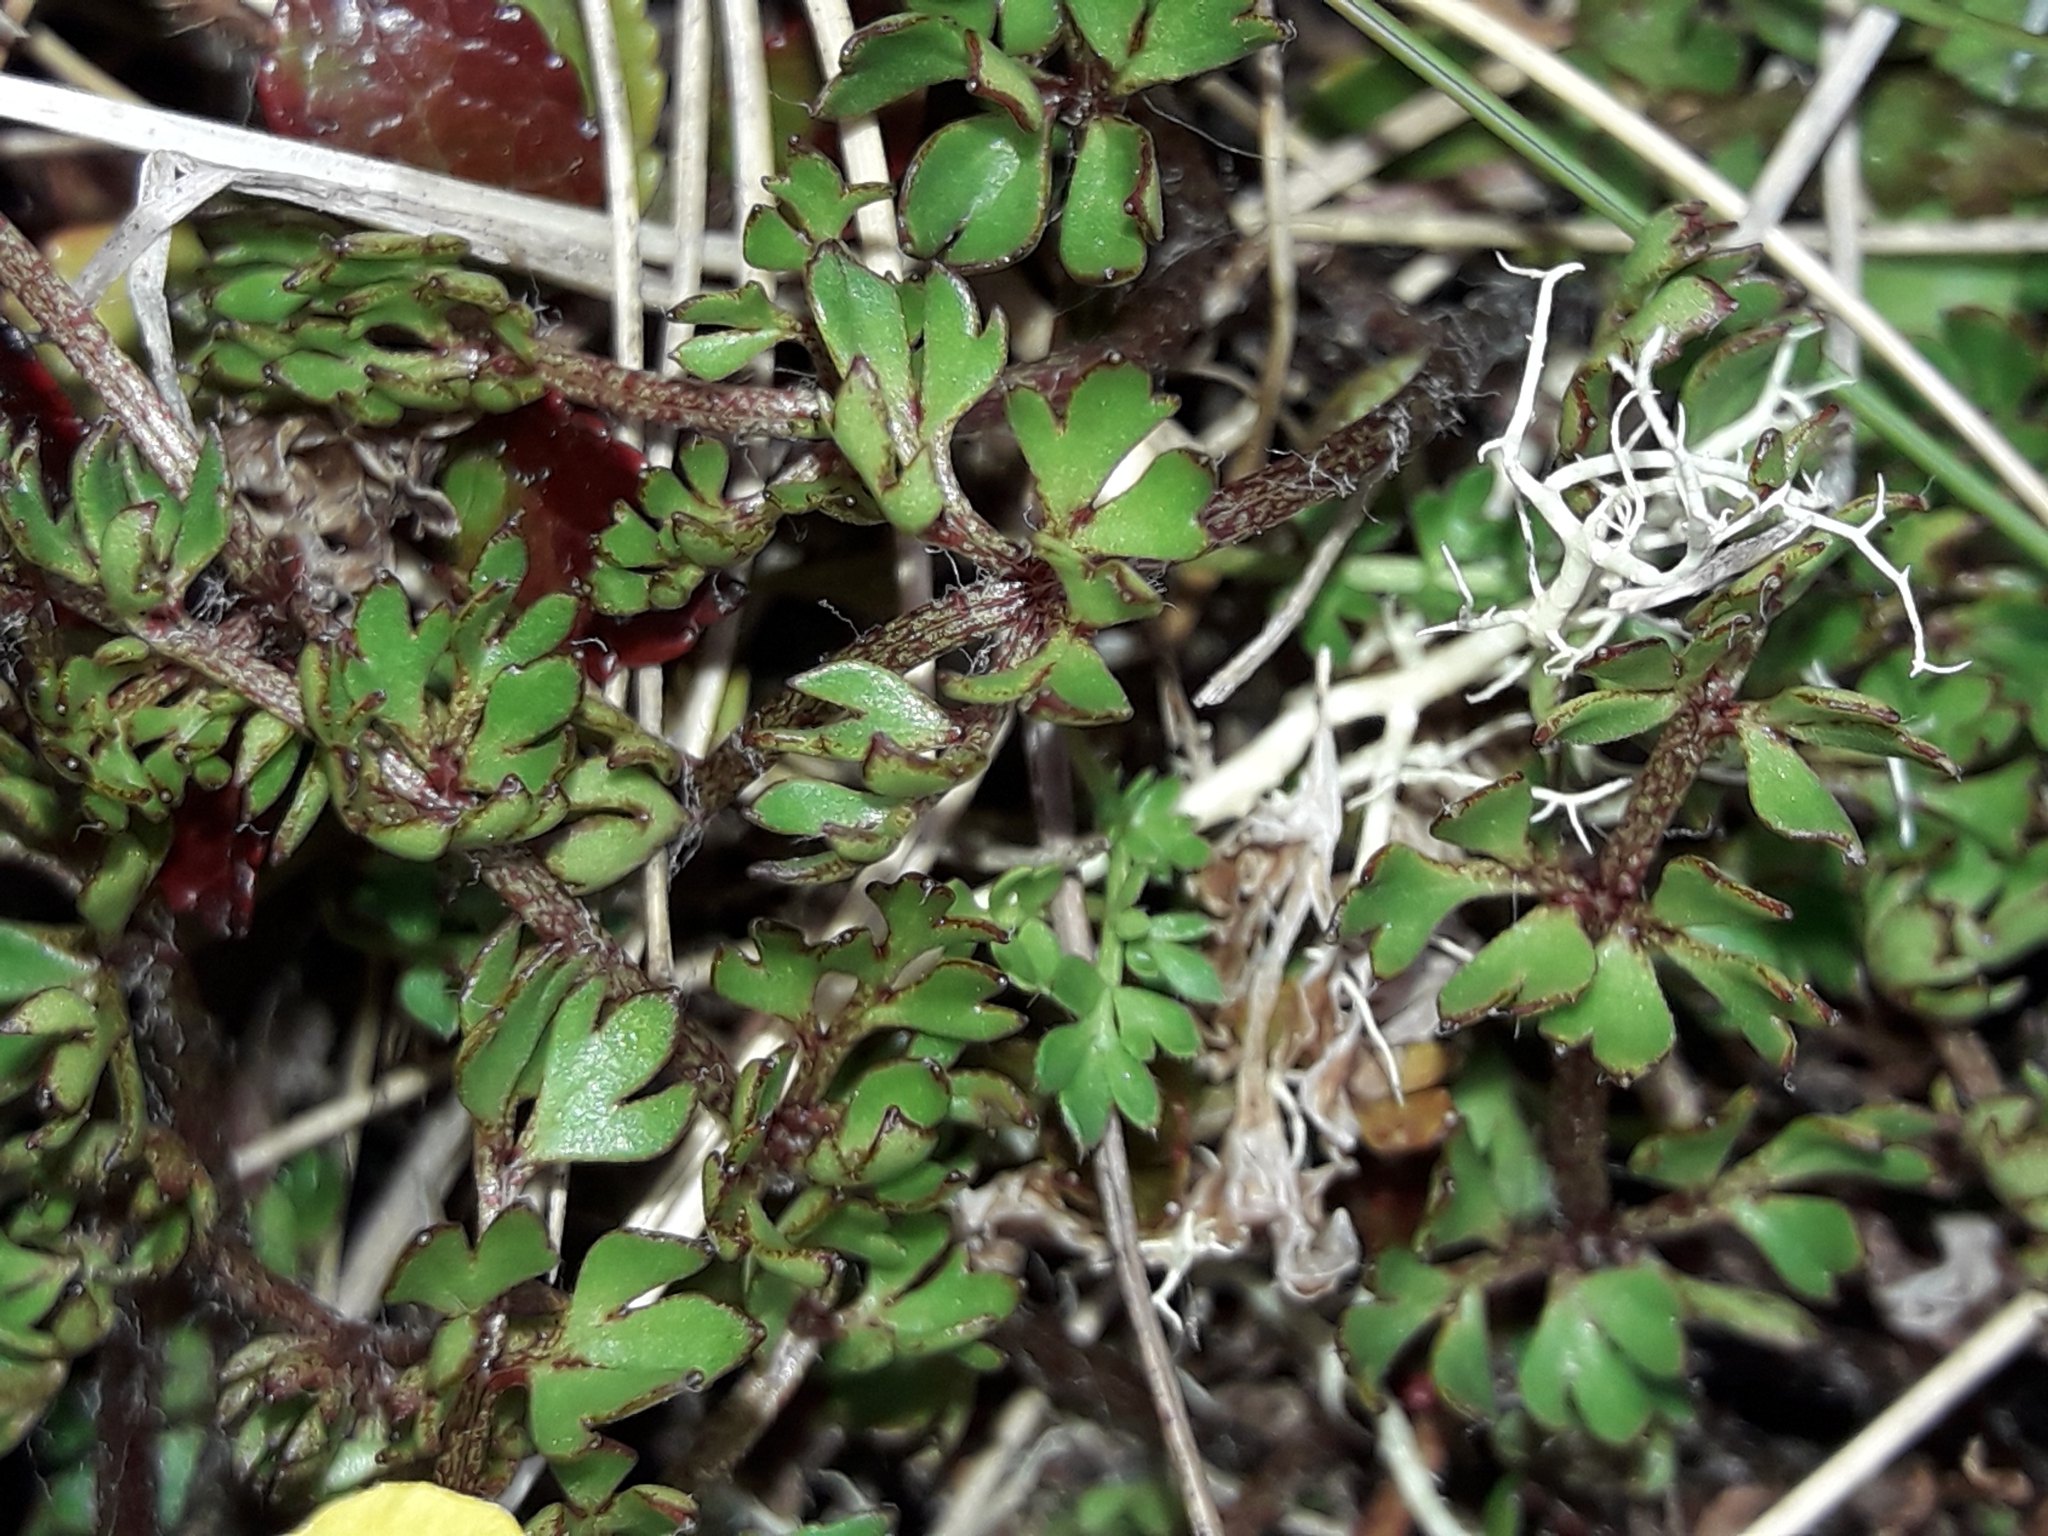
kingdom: Plantae
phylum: Tracheophyta
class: Magnoliopsida
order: Ranunculales
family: Ranunculaceae
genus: Ranunculus
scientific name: Ranunculus gracilipes
